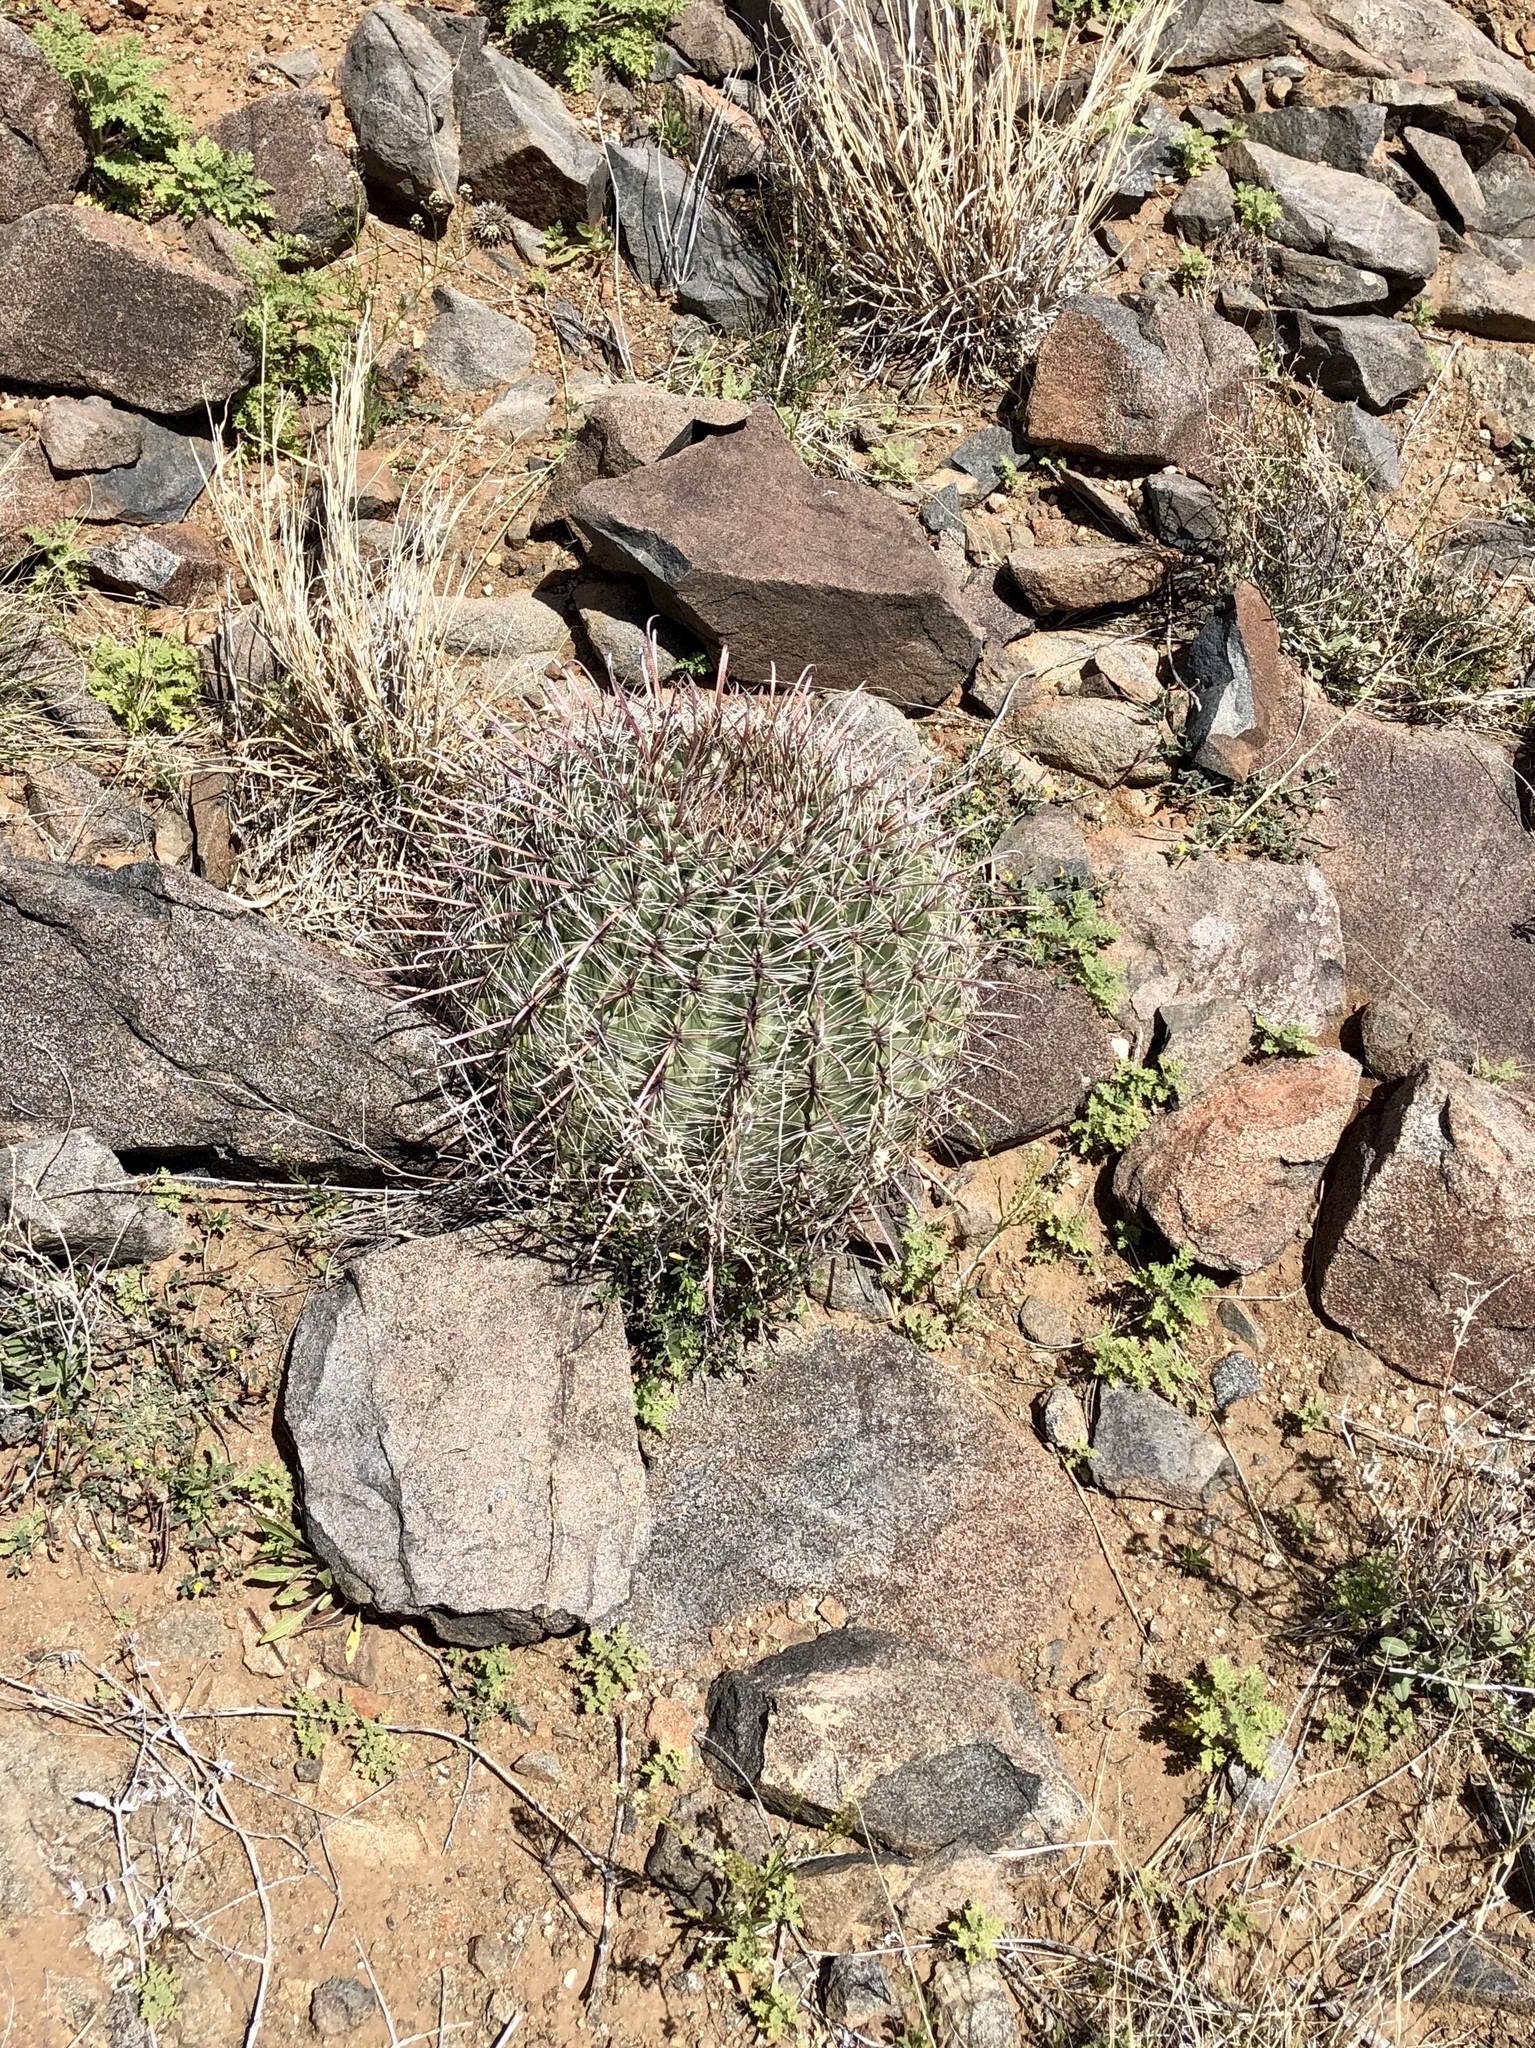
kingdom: Plantae
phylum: Tracheophyta
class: Magnoliopsida
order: Caryophyllales
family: Cactaceae
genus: Ferocactus
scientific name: Ferocactus wislizeni
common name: Candy barrel cactus
